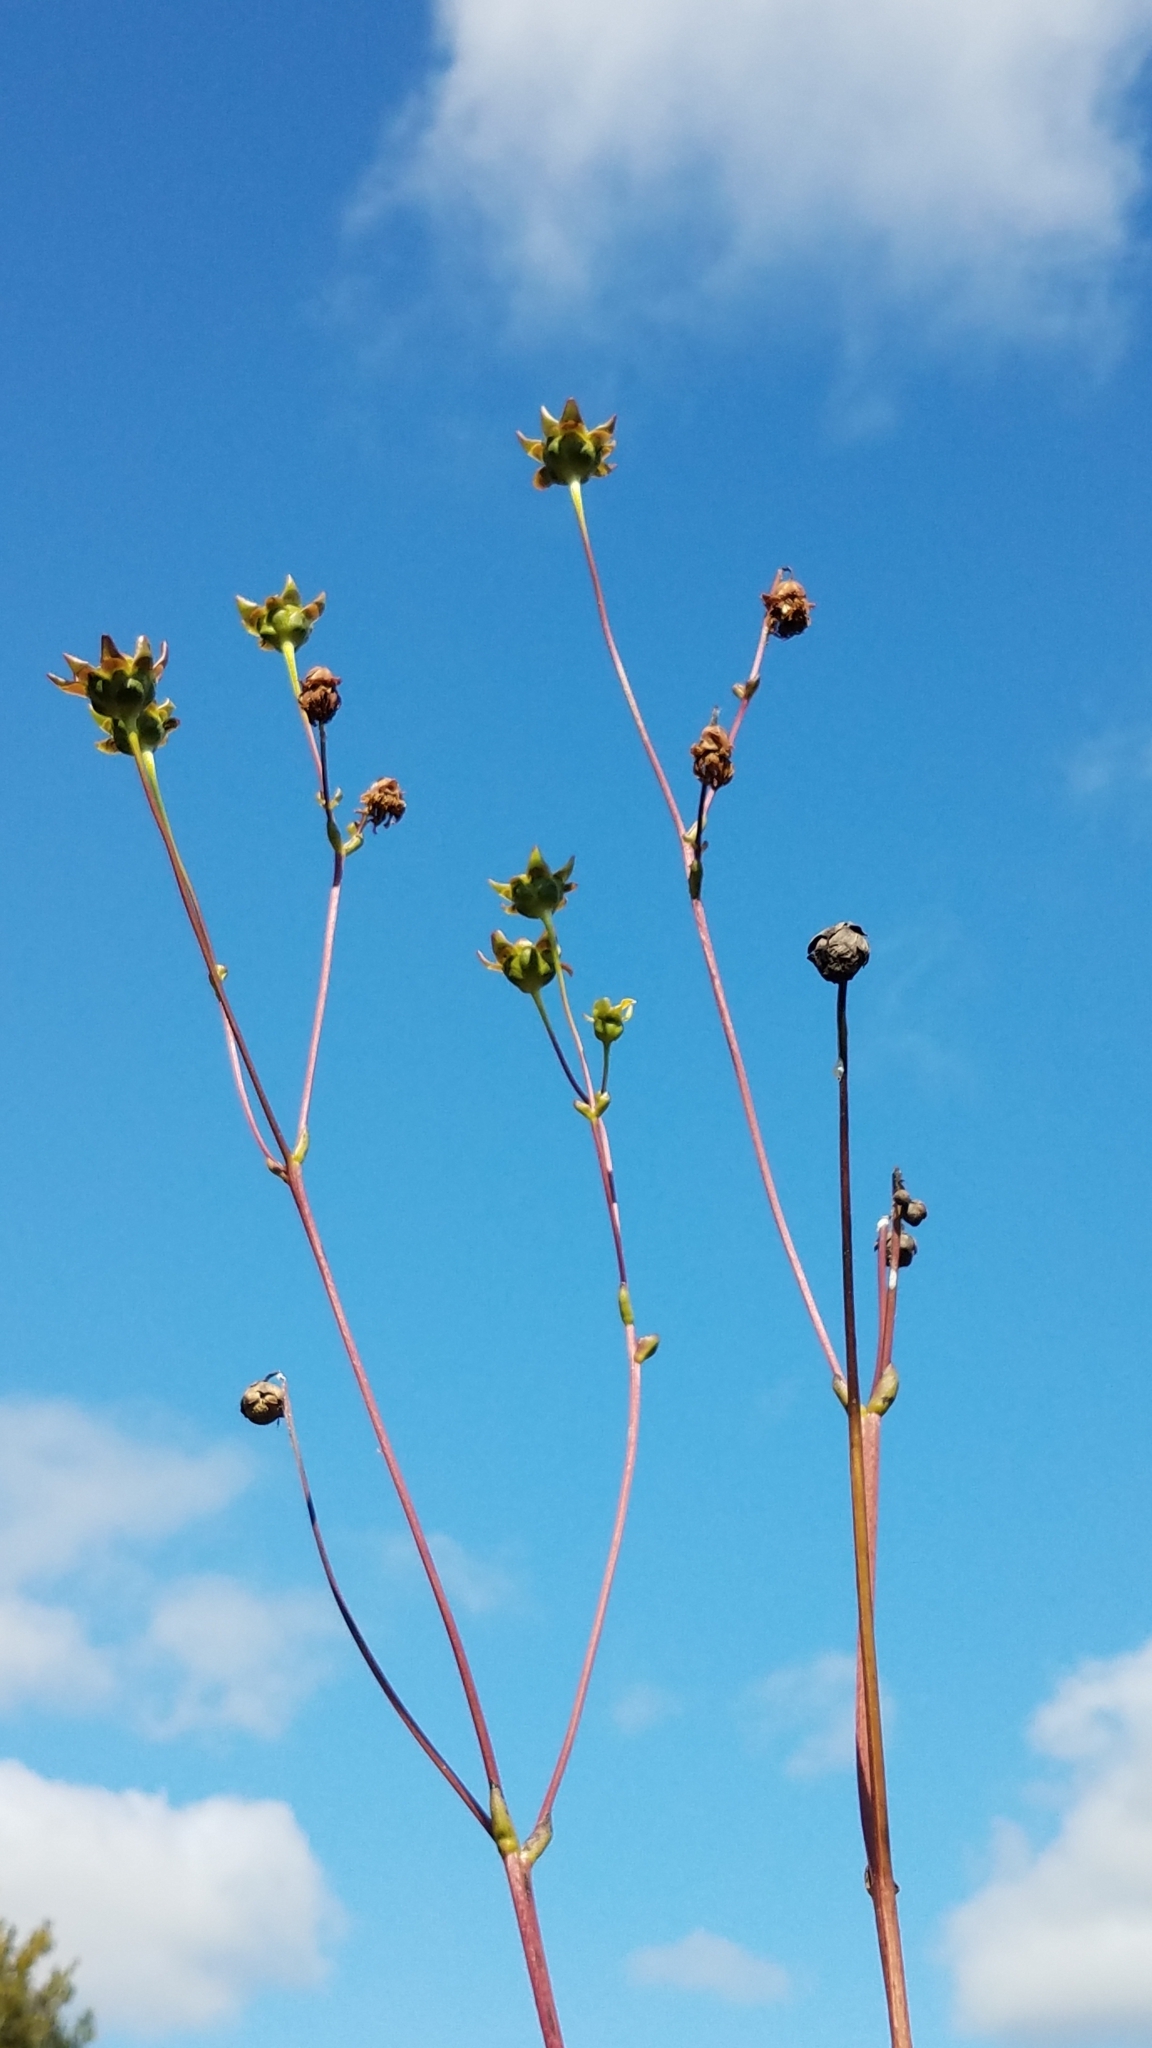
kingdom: Plantae
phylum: Tracheophyta
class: Magnoliopsida
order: Asterales
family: Asteraceae
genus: Silphium
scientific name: Silphium terebinthinaceum
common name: Basal-leaf rosinweed
